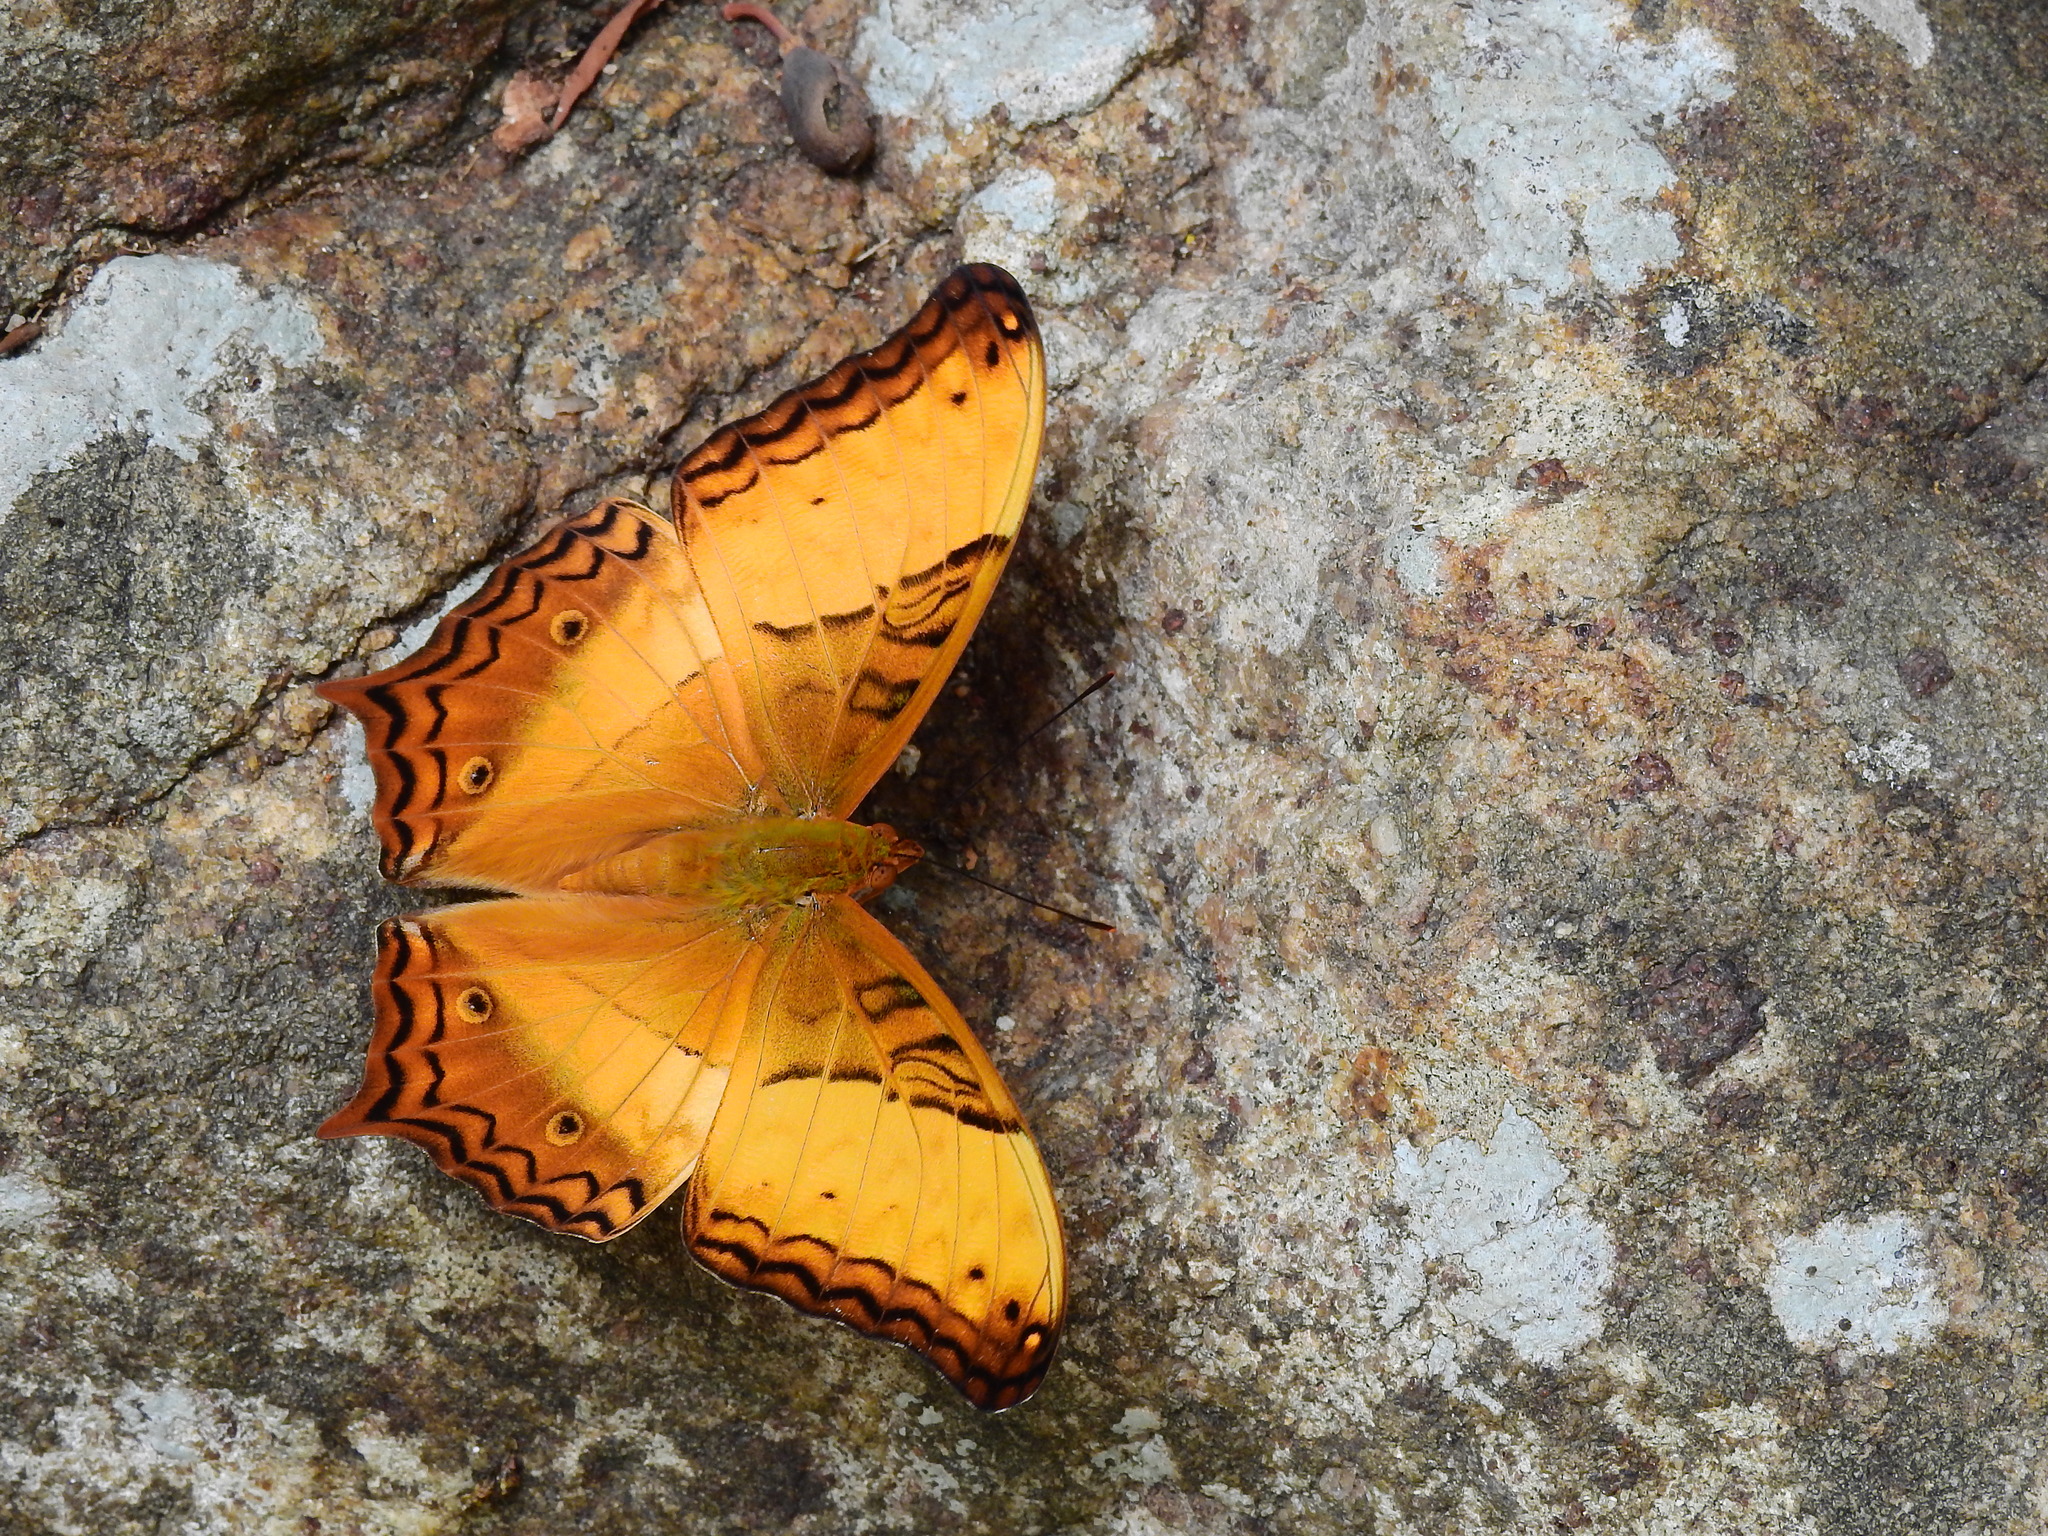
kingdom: Animalia
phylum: Arthropoda
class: Insecta
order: Lepidoptera
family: Nymphalidae
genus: Vindula
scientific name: Vindula erota
